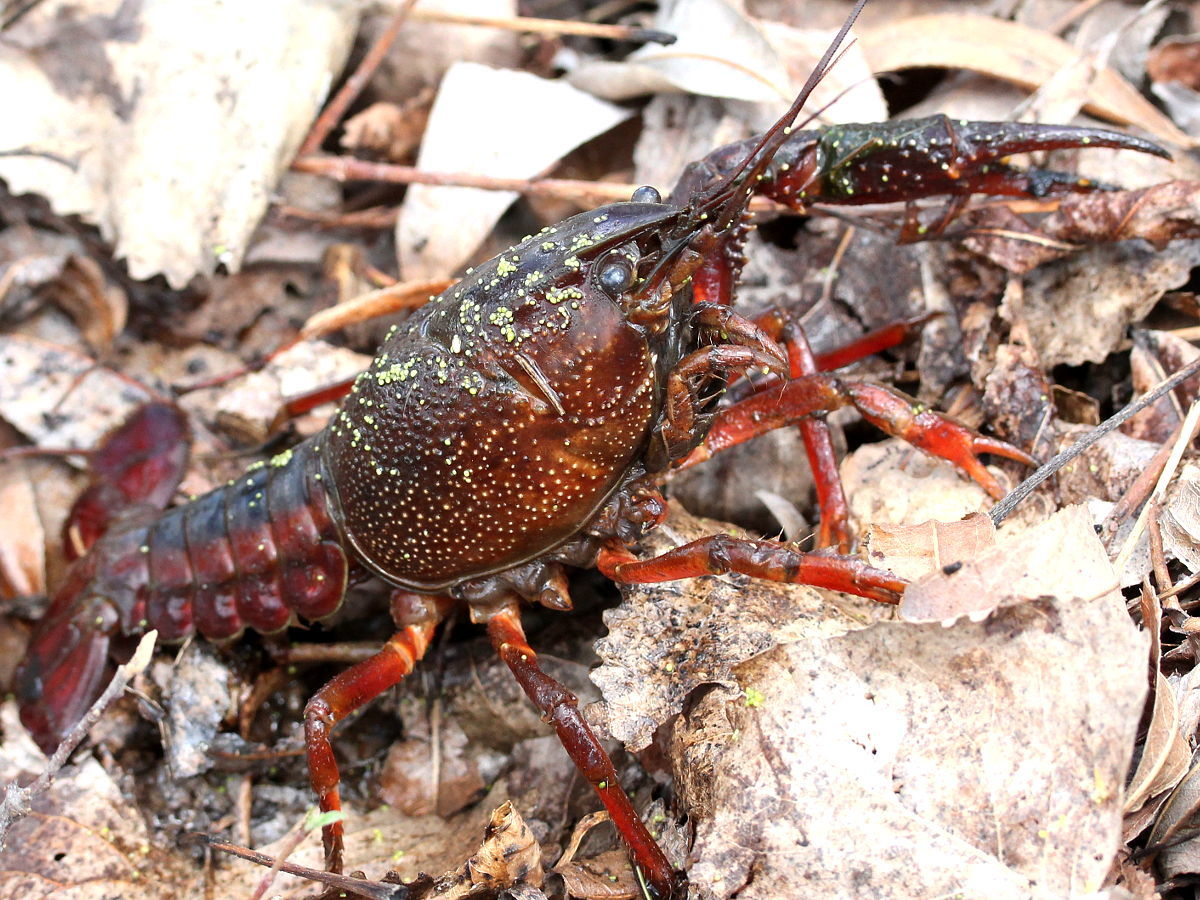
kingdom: Animalia
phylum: Arthropoda
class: Malacostraca
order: Decapoda
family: Cambaridae
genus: Procambarus
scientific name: Procambarus gracilis
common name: Prairie crayfish
